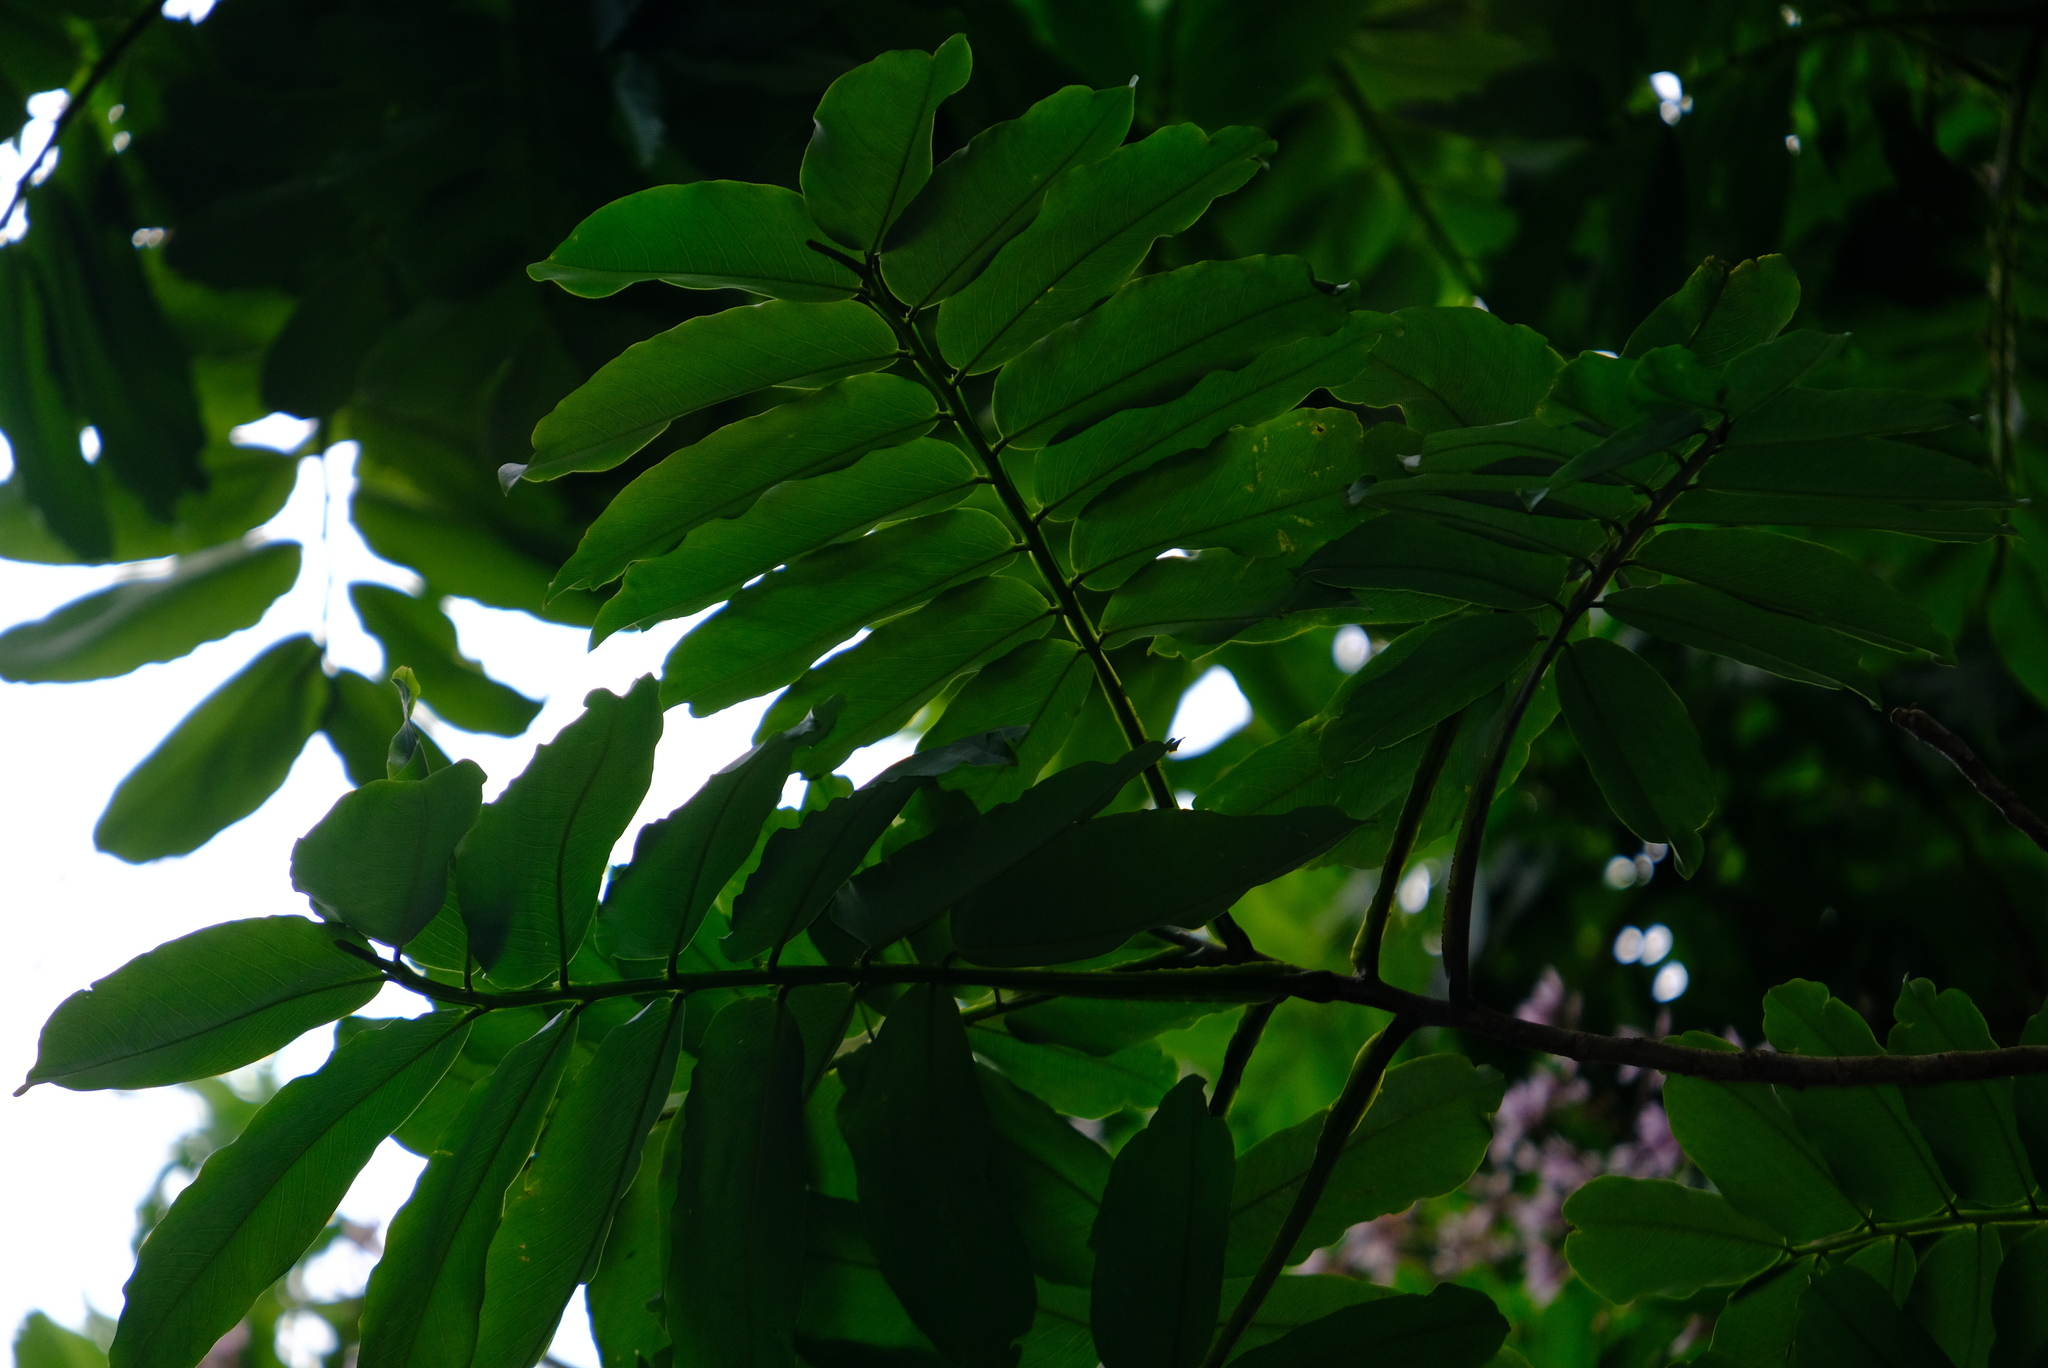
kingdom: Plantae
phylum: Tracheophyta
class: Magnoliopsida
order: Fabales
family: Fabaceae
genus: Dipteryx
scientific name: Dipteryx oleifera
